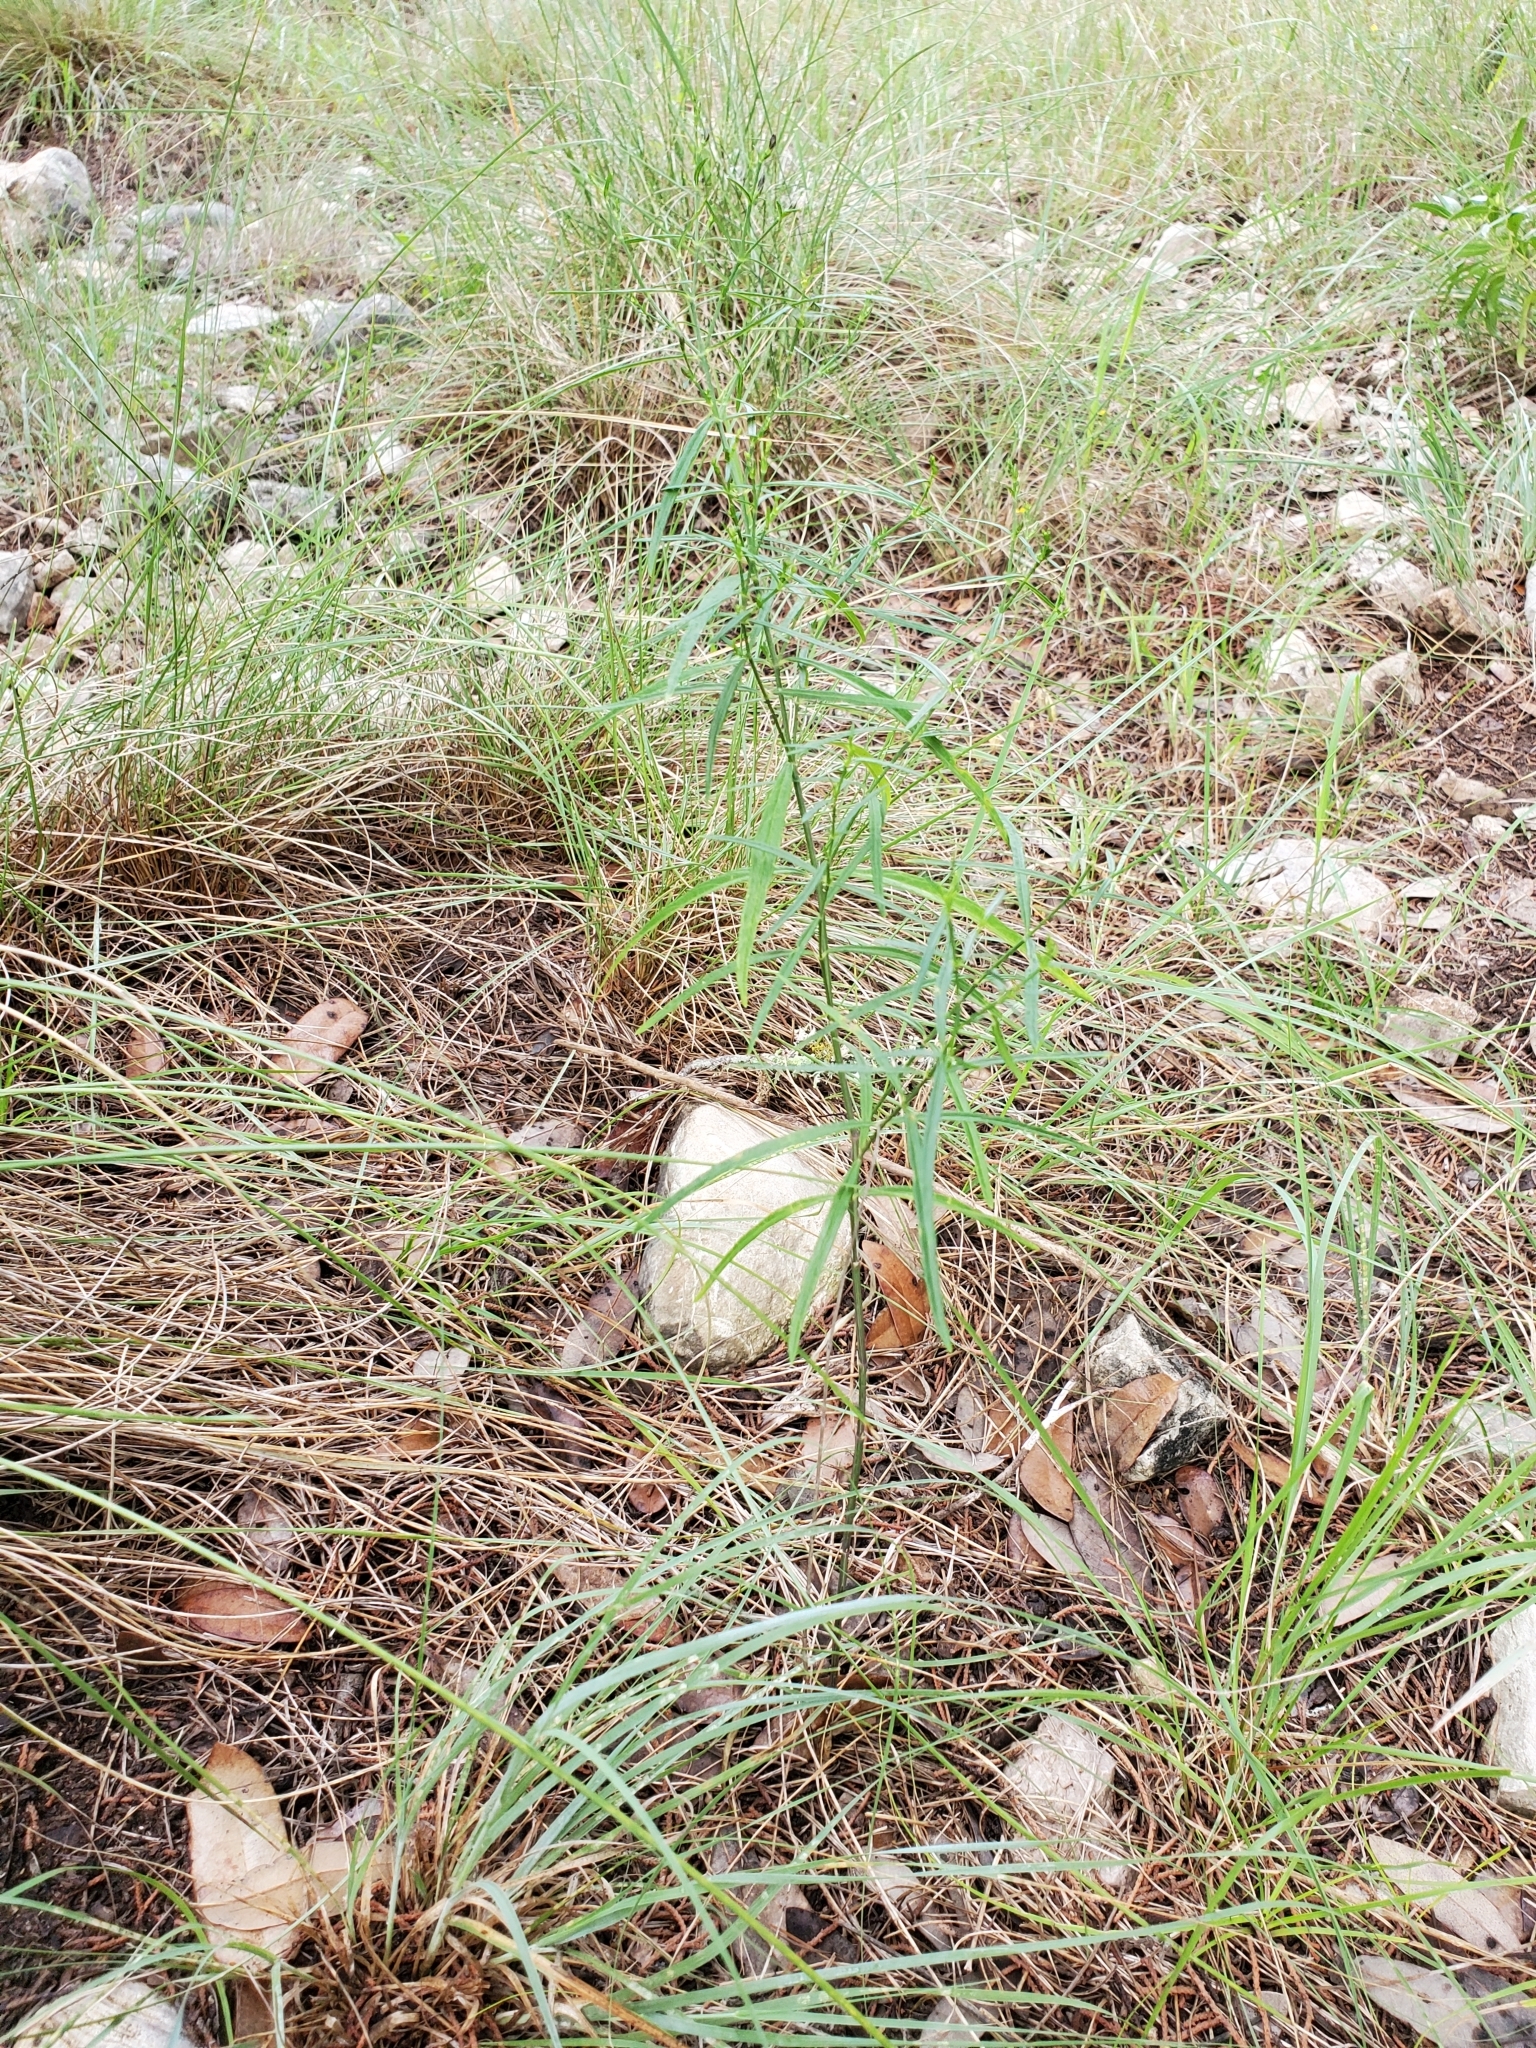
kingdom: Plantae
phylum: Tracheophyta
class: Magnoliopsida
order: Lamiales
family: Acanthaceae
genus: Carlowrightia
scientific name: Carlowrightia linearifolia
